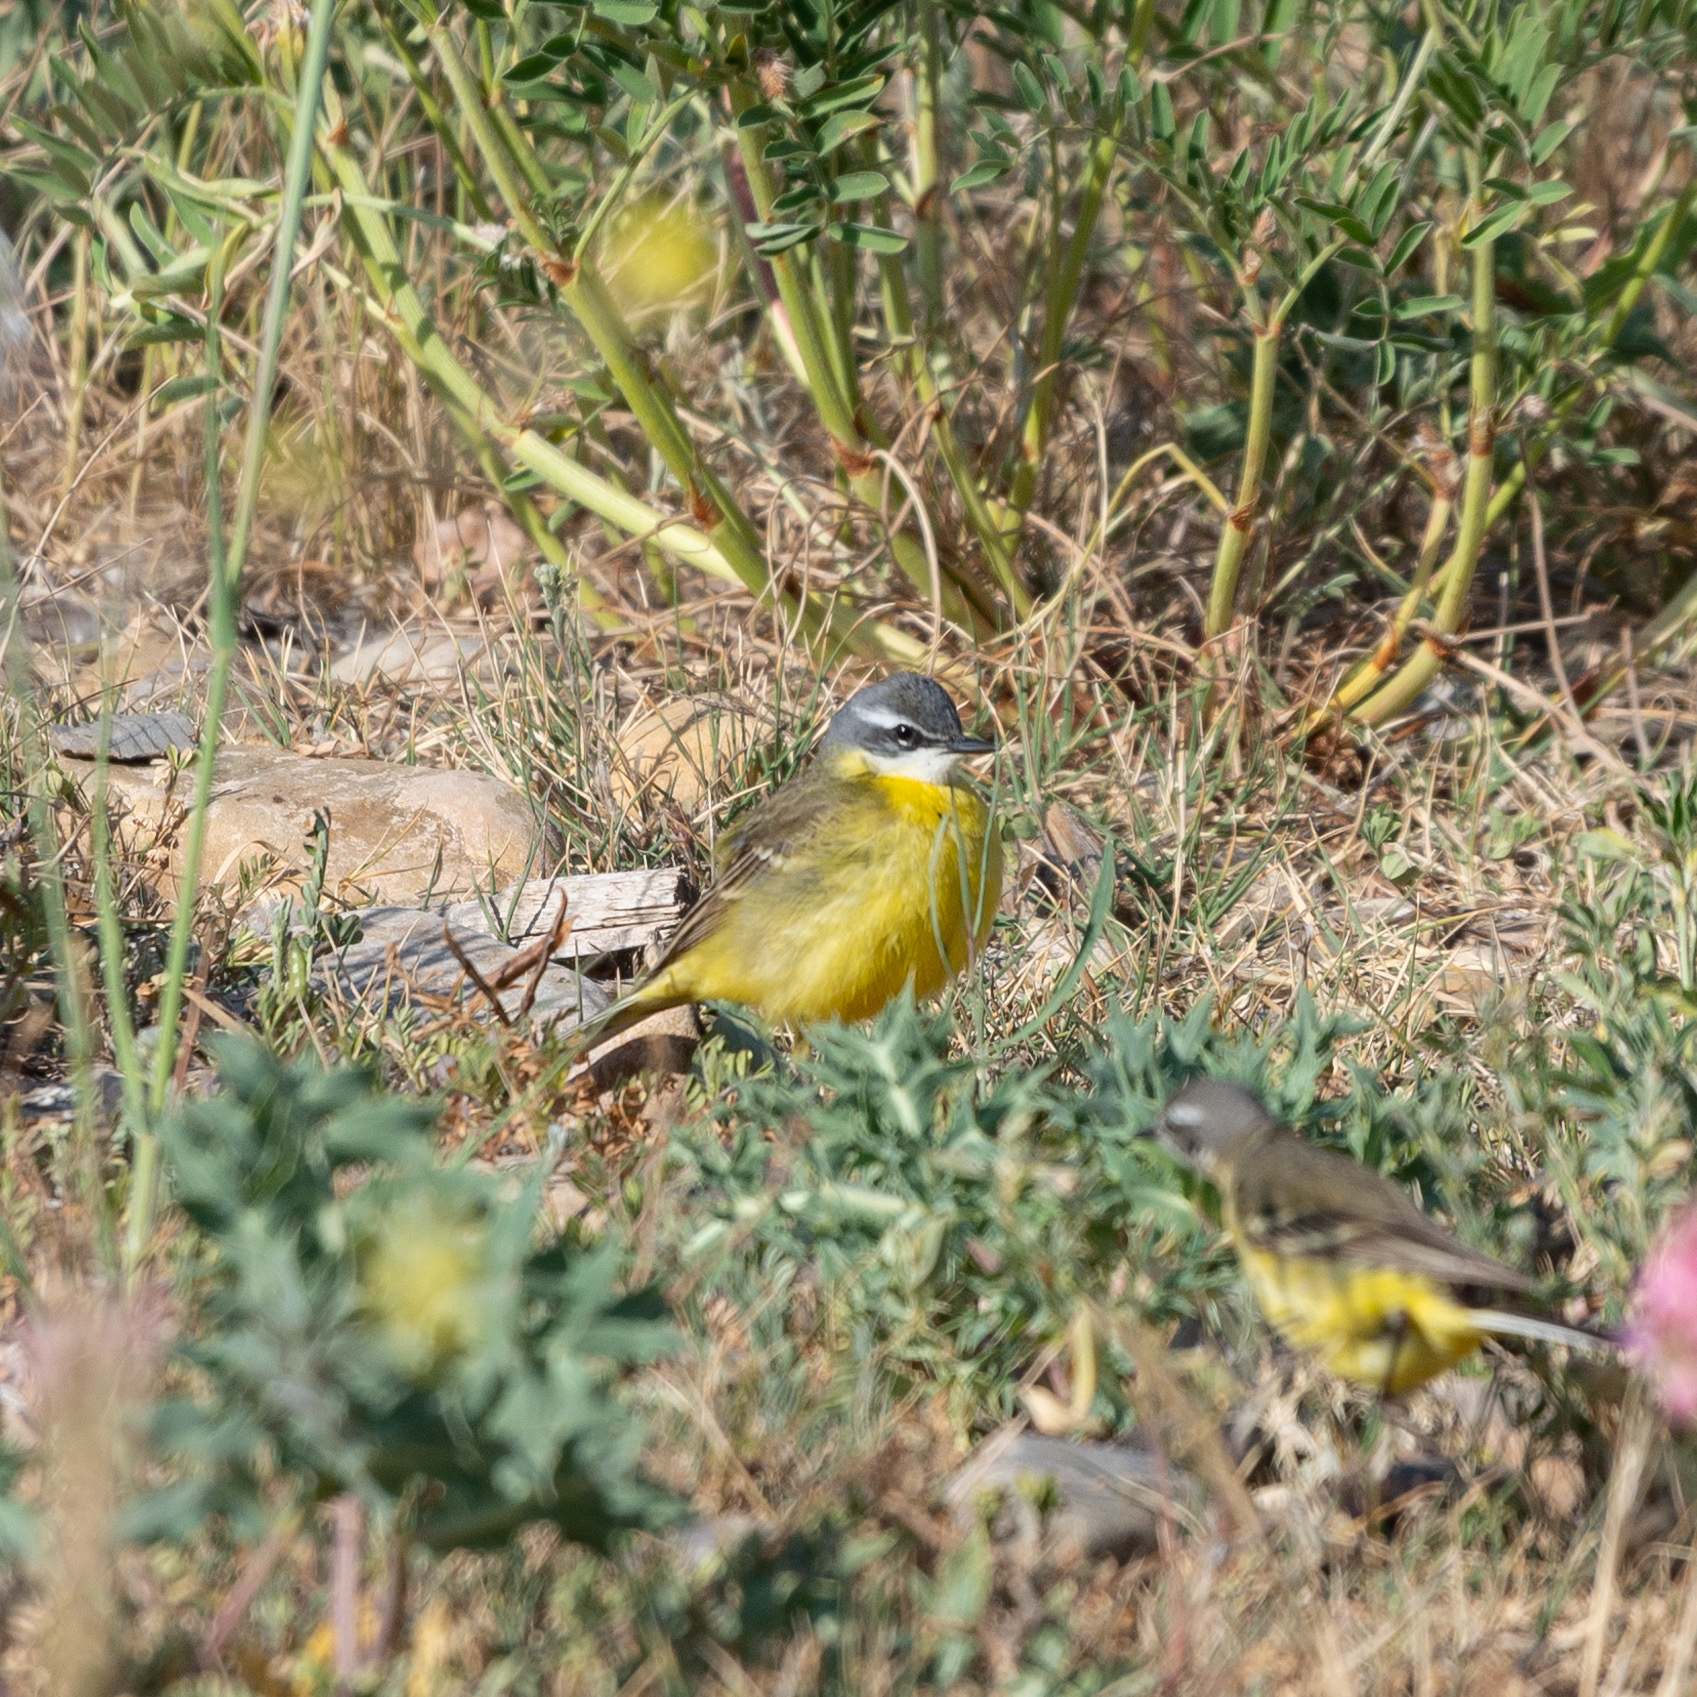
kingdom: Animalia
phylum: Chordata
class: Aves
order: Passeriformes
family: Motacillidae
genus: Motacilla
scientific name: Motacilla flava
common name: Western yellow wagtail
